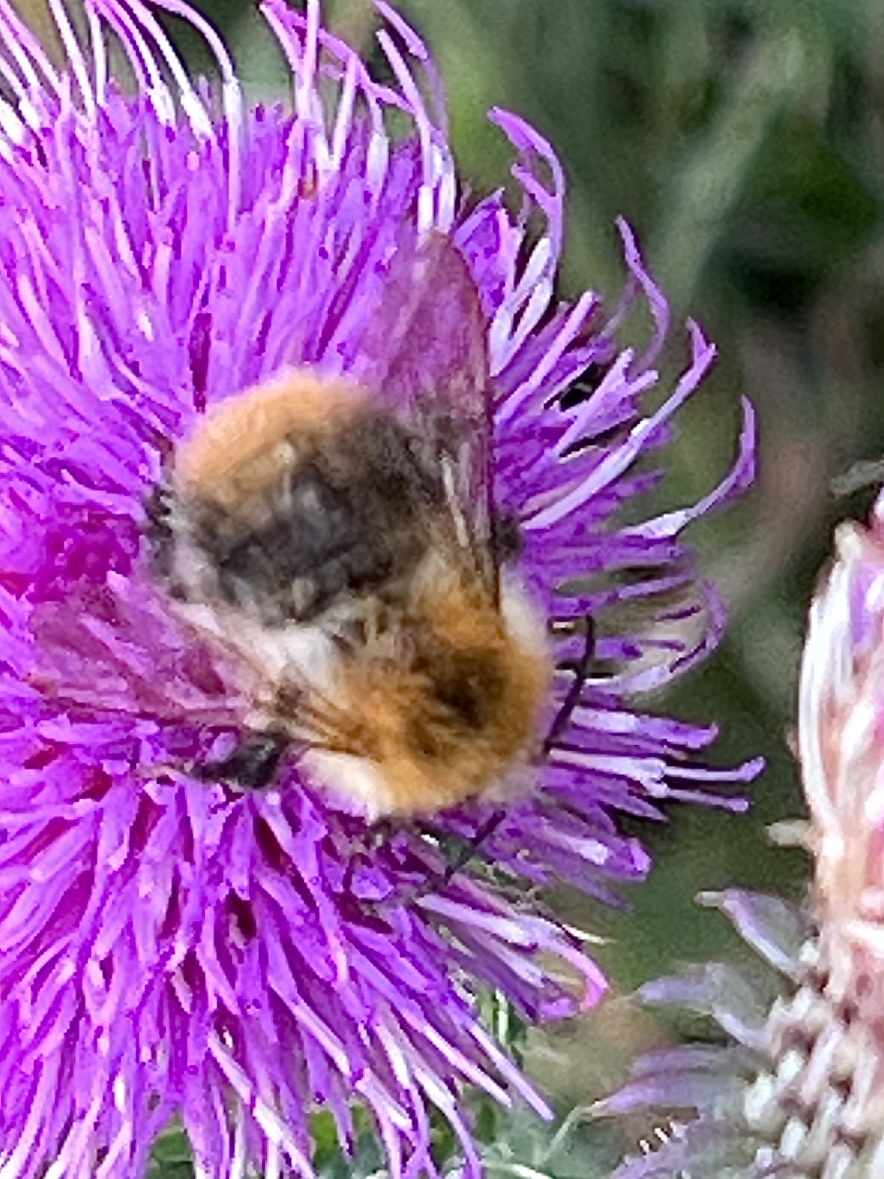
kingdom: Animalia
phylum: Arthropoda
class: Insecta
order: Hymenoptera
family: Apidae
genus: Bombus
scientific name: Bombus pascuorum
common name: Common carder bee
